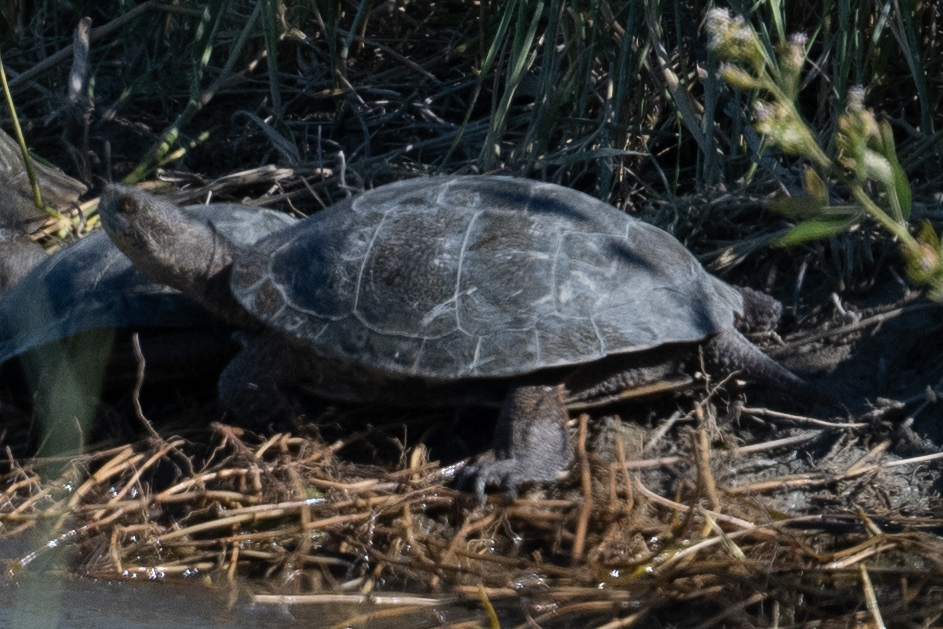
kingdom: Animalia
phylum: Chordata
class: Testudines
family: Emydidae
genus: Actinemys
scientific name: Actinemys marmorata
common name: Western pond turtle
